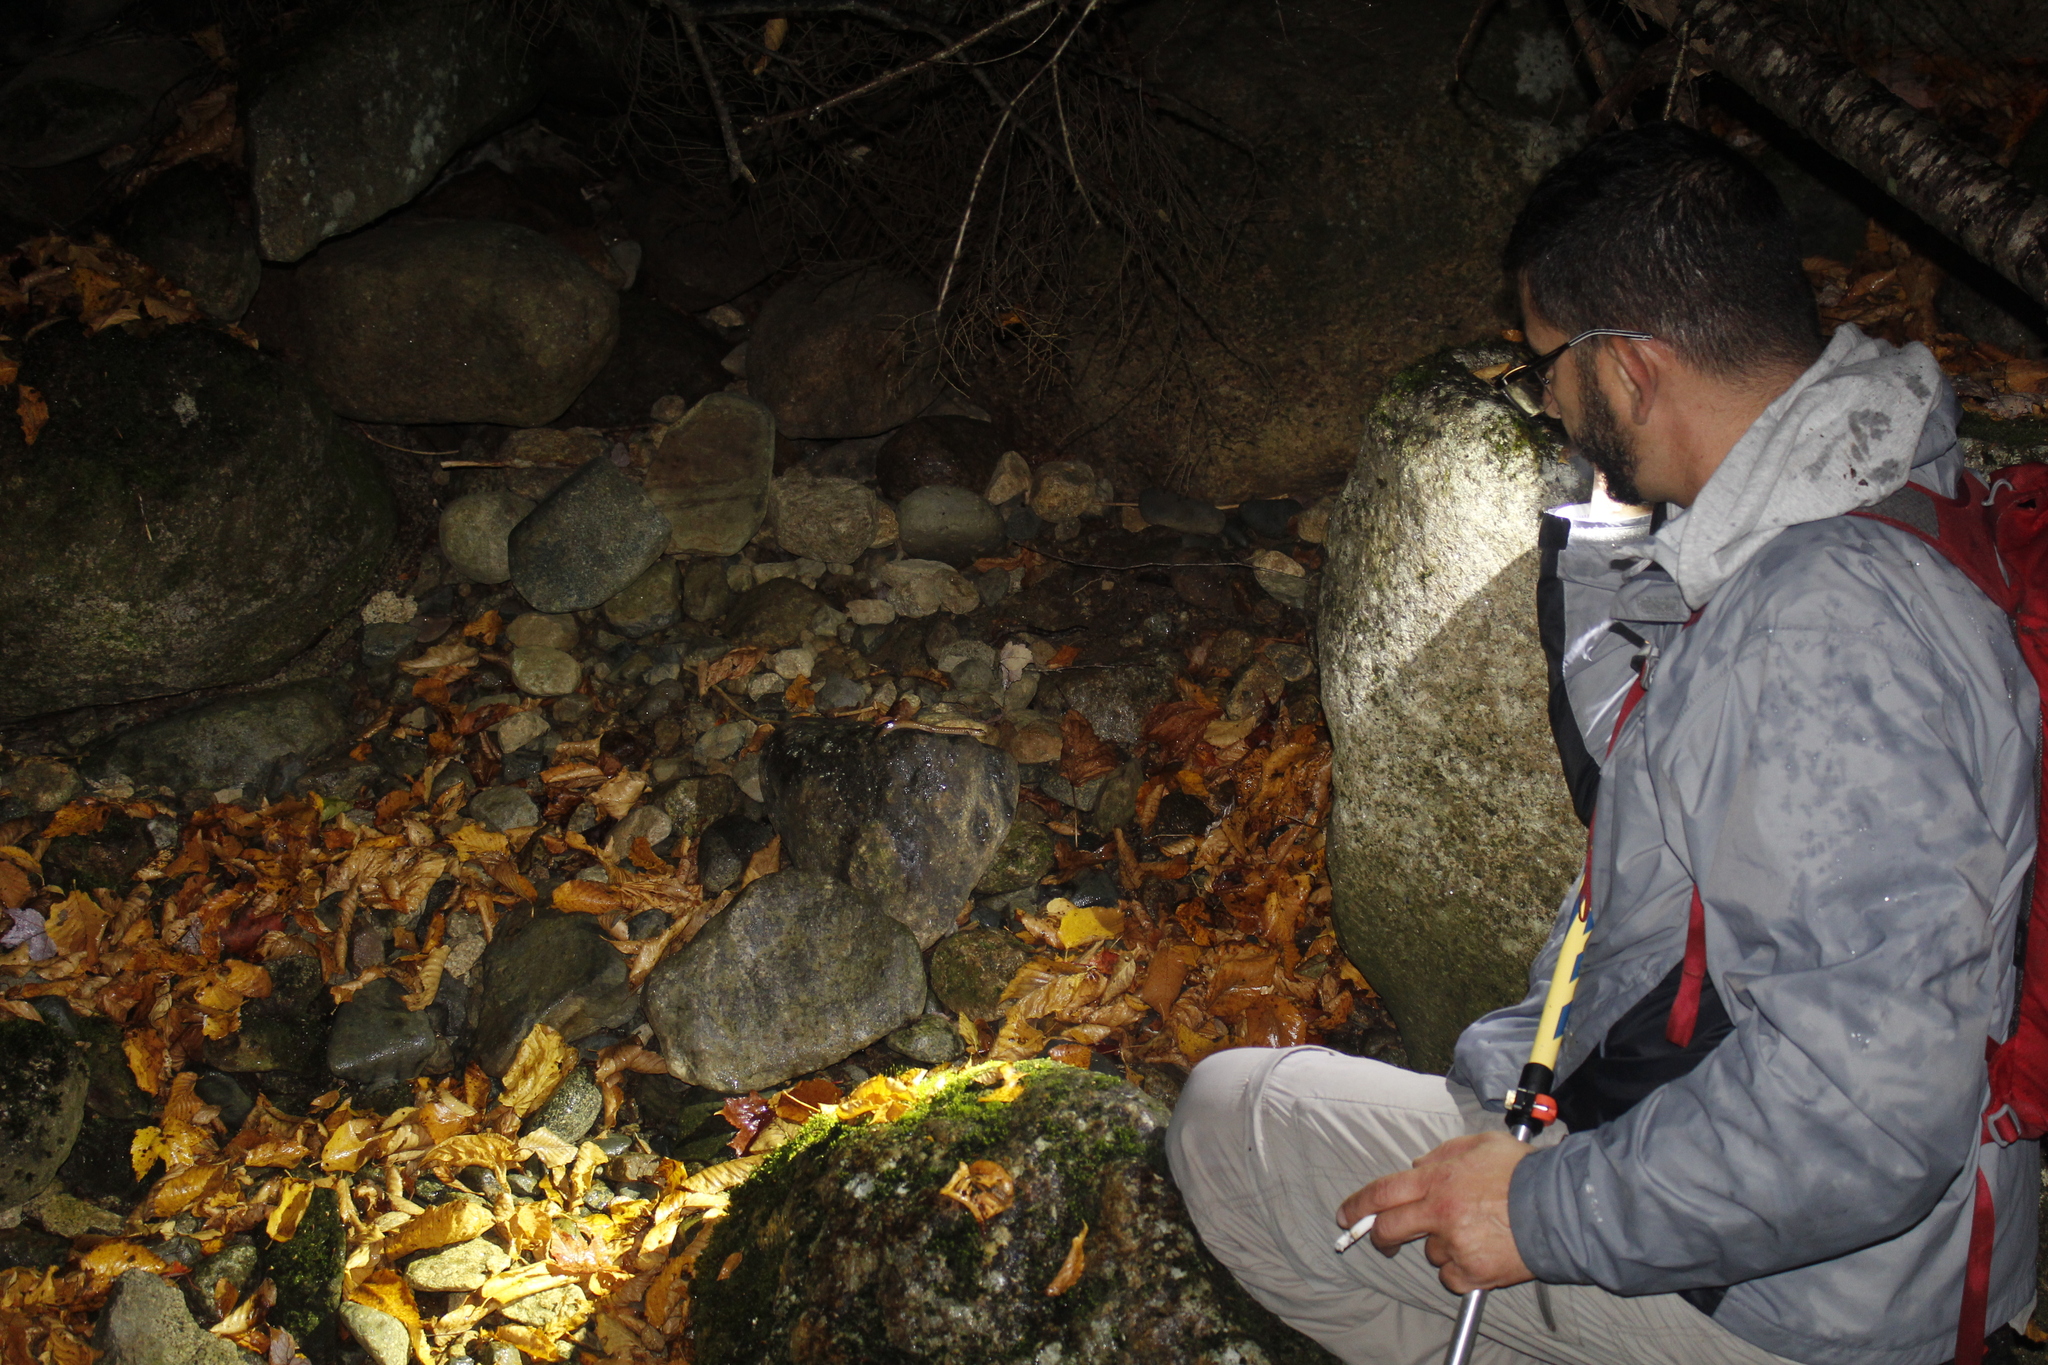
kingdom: Animalia
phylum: Chordata
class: Amphibia
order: Caudata
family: Plethodontidae
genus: Gyrinophilus
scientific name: Gyrinophilus porphyriticus
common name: Spring salamander
